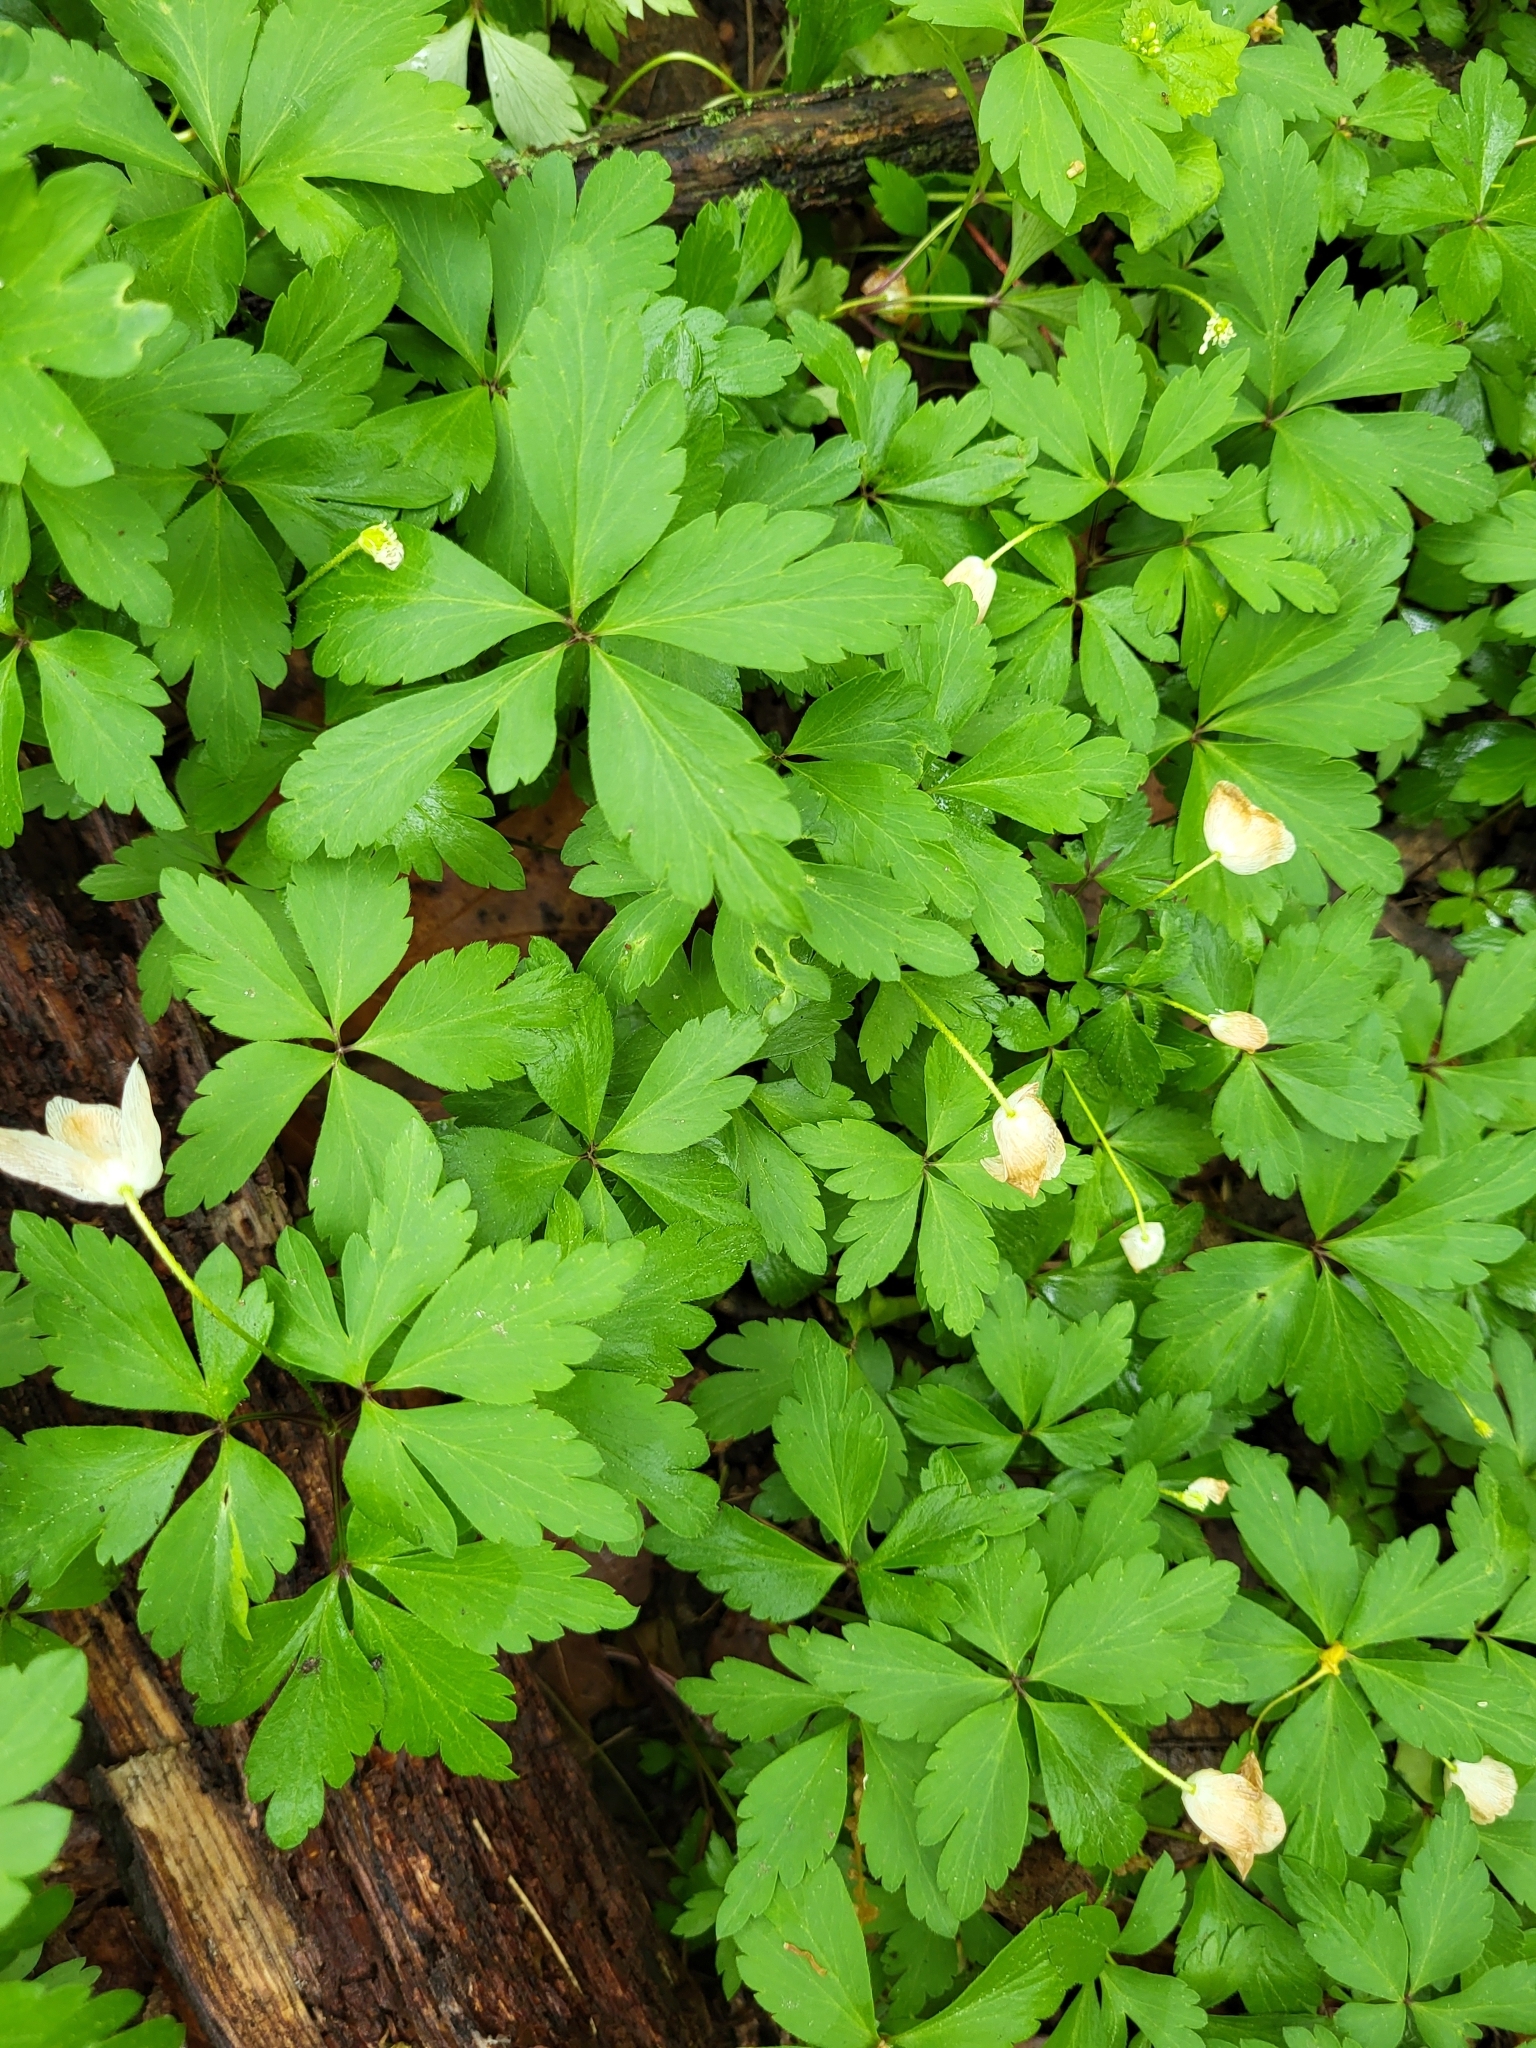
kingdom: Plantae
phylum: Tracheophyta
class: Magnoliopsida
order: Ranunculales
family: Ranunculaceae
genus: Anemone
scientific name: Anemone quinquefolia
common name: Wood anemone
